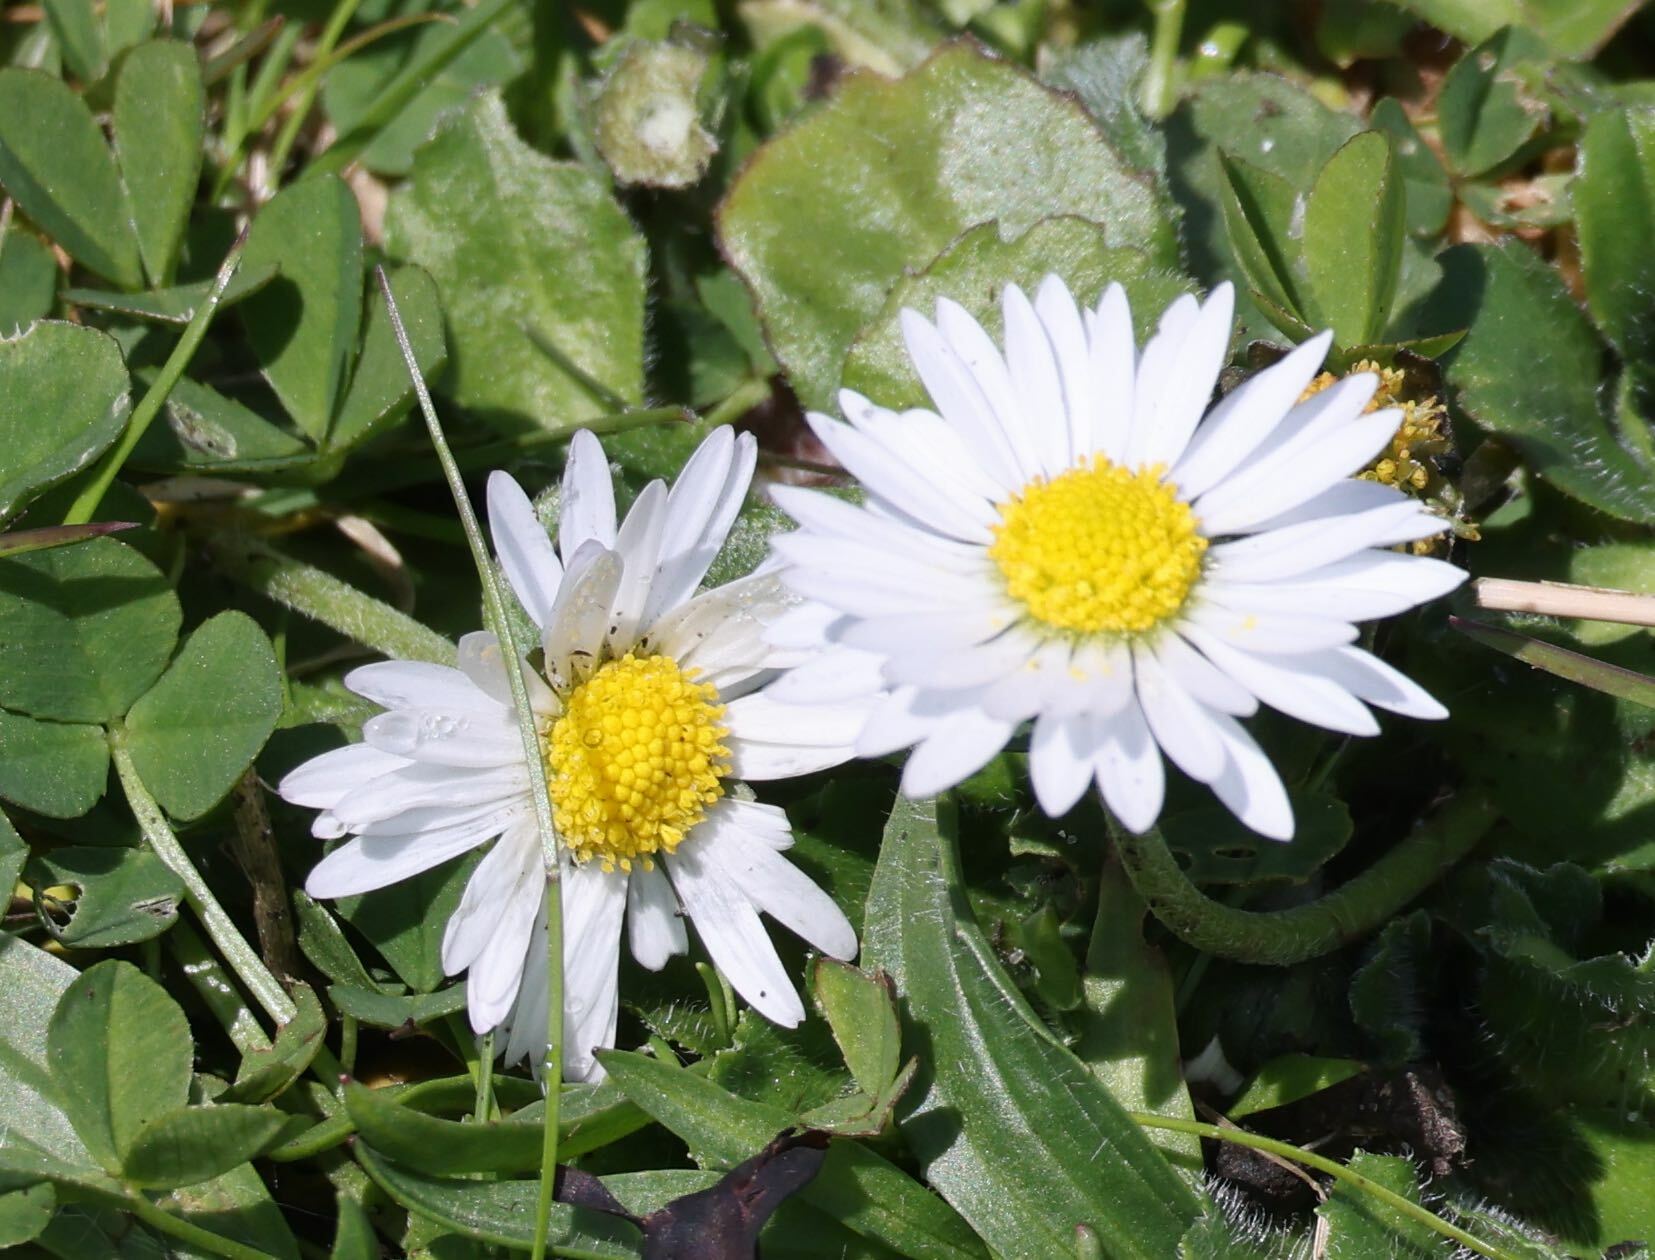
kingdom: Plantae
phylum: Tracheophyta
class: Magnoliopsida
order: Asterales
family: Asteraceae
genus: Bellis
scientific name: Bellis perennis
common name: Lawndaisy
